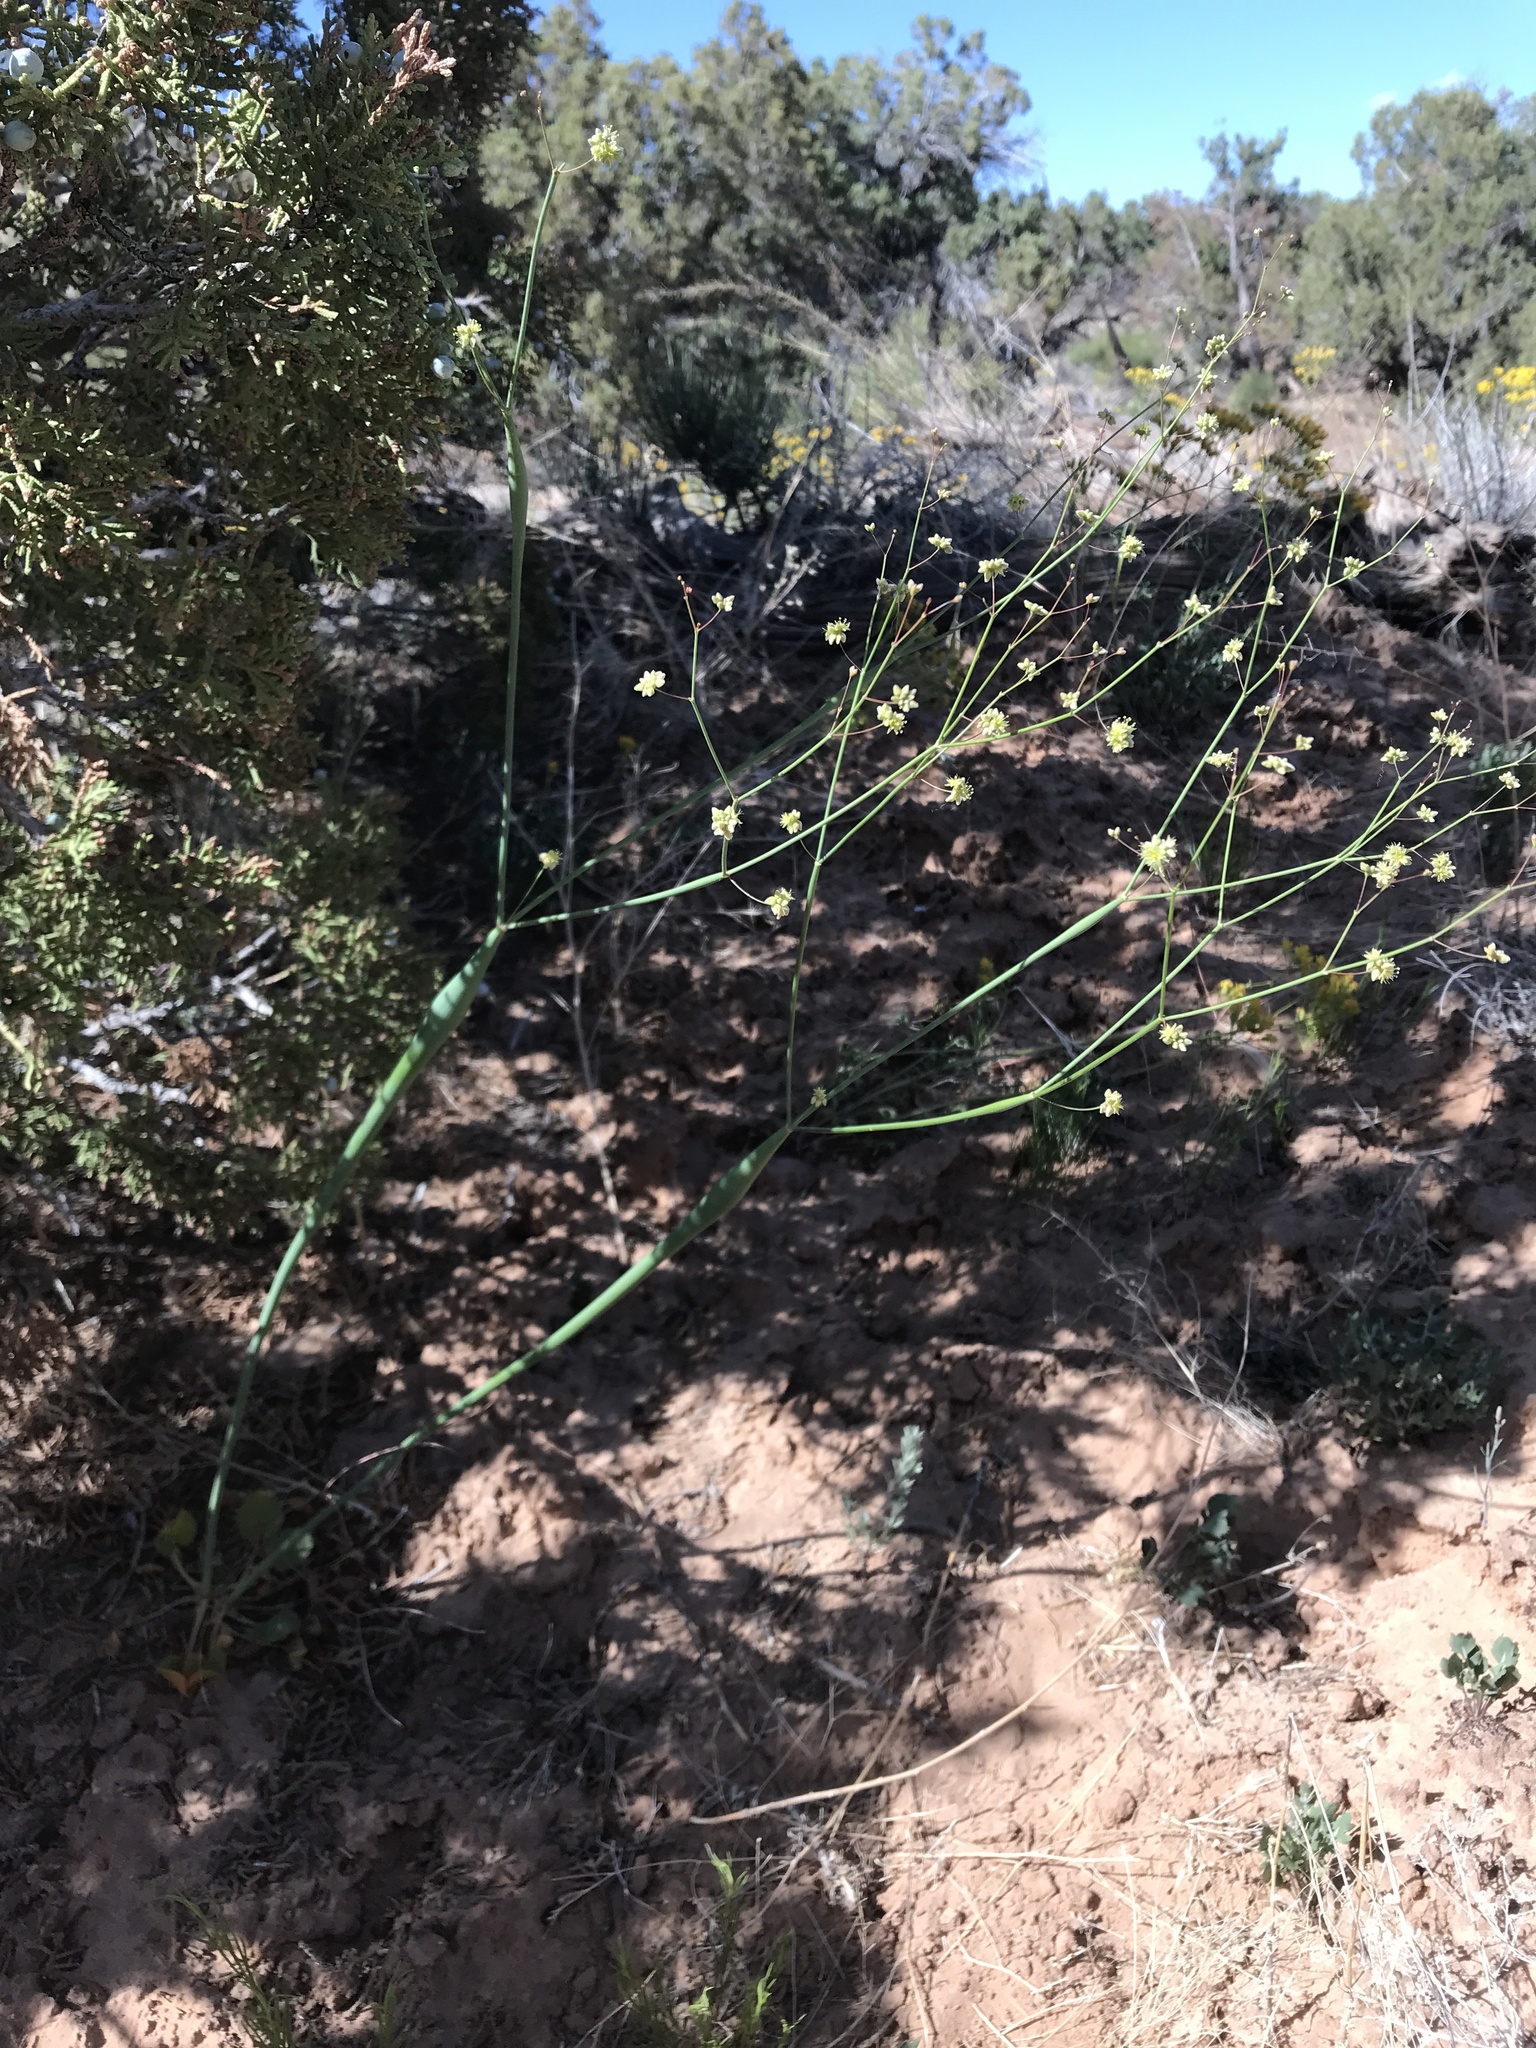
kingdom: Plantae
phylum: Tracheophyta
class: Magnoliopsida
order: Caryophyllales
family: Polygonaceae
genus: Eriogonum
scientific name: Eriogonum inflatum
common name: Desert trumpet
